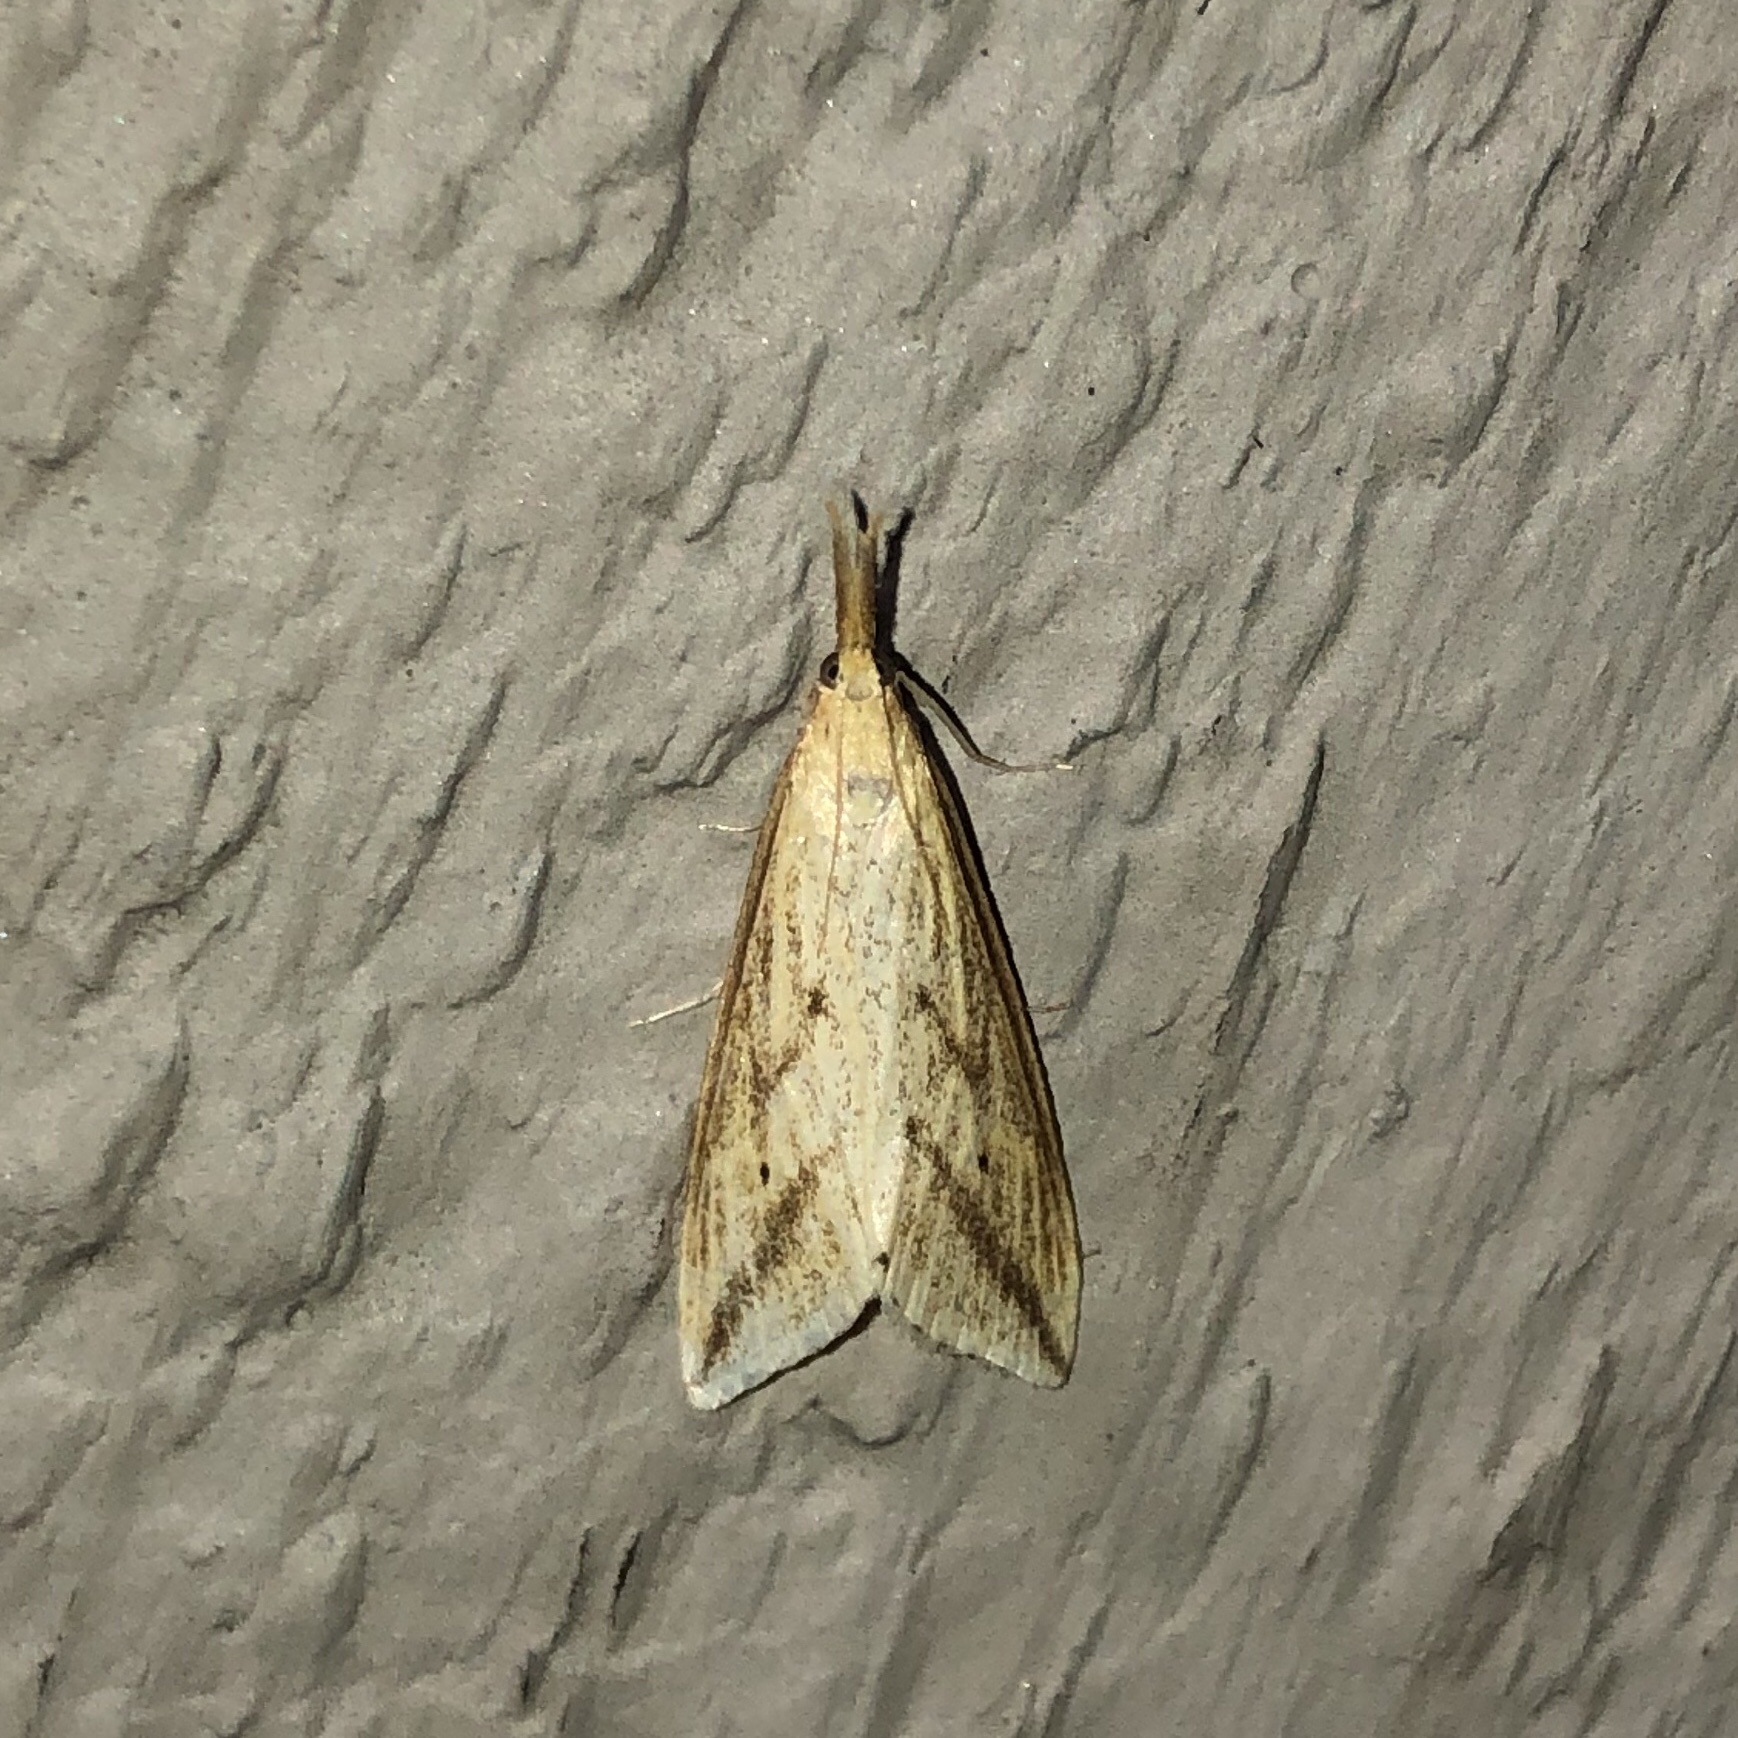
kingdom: Animalia
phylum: Arthropoda
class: Insecta
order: Lepidoptera
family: Crambidae
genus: Donacaula
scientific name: Donacaula longirostrallus
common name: Long-beaked donacaula moth
